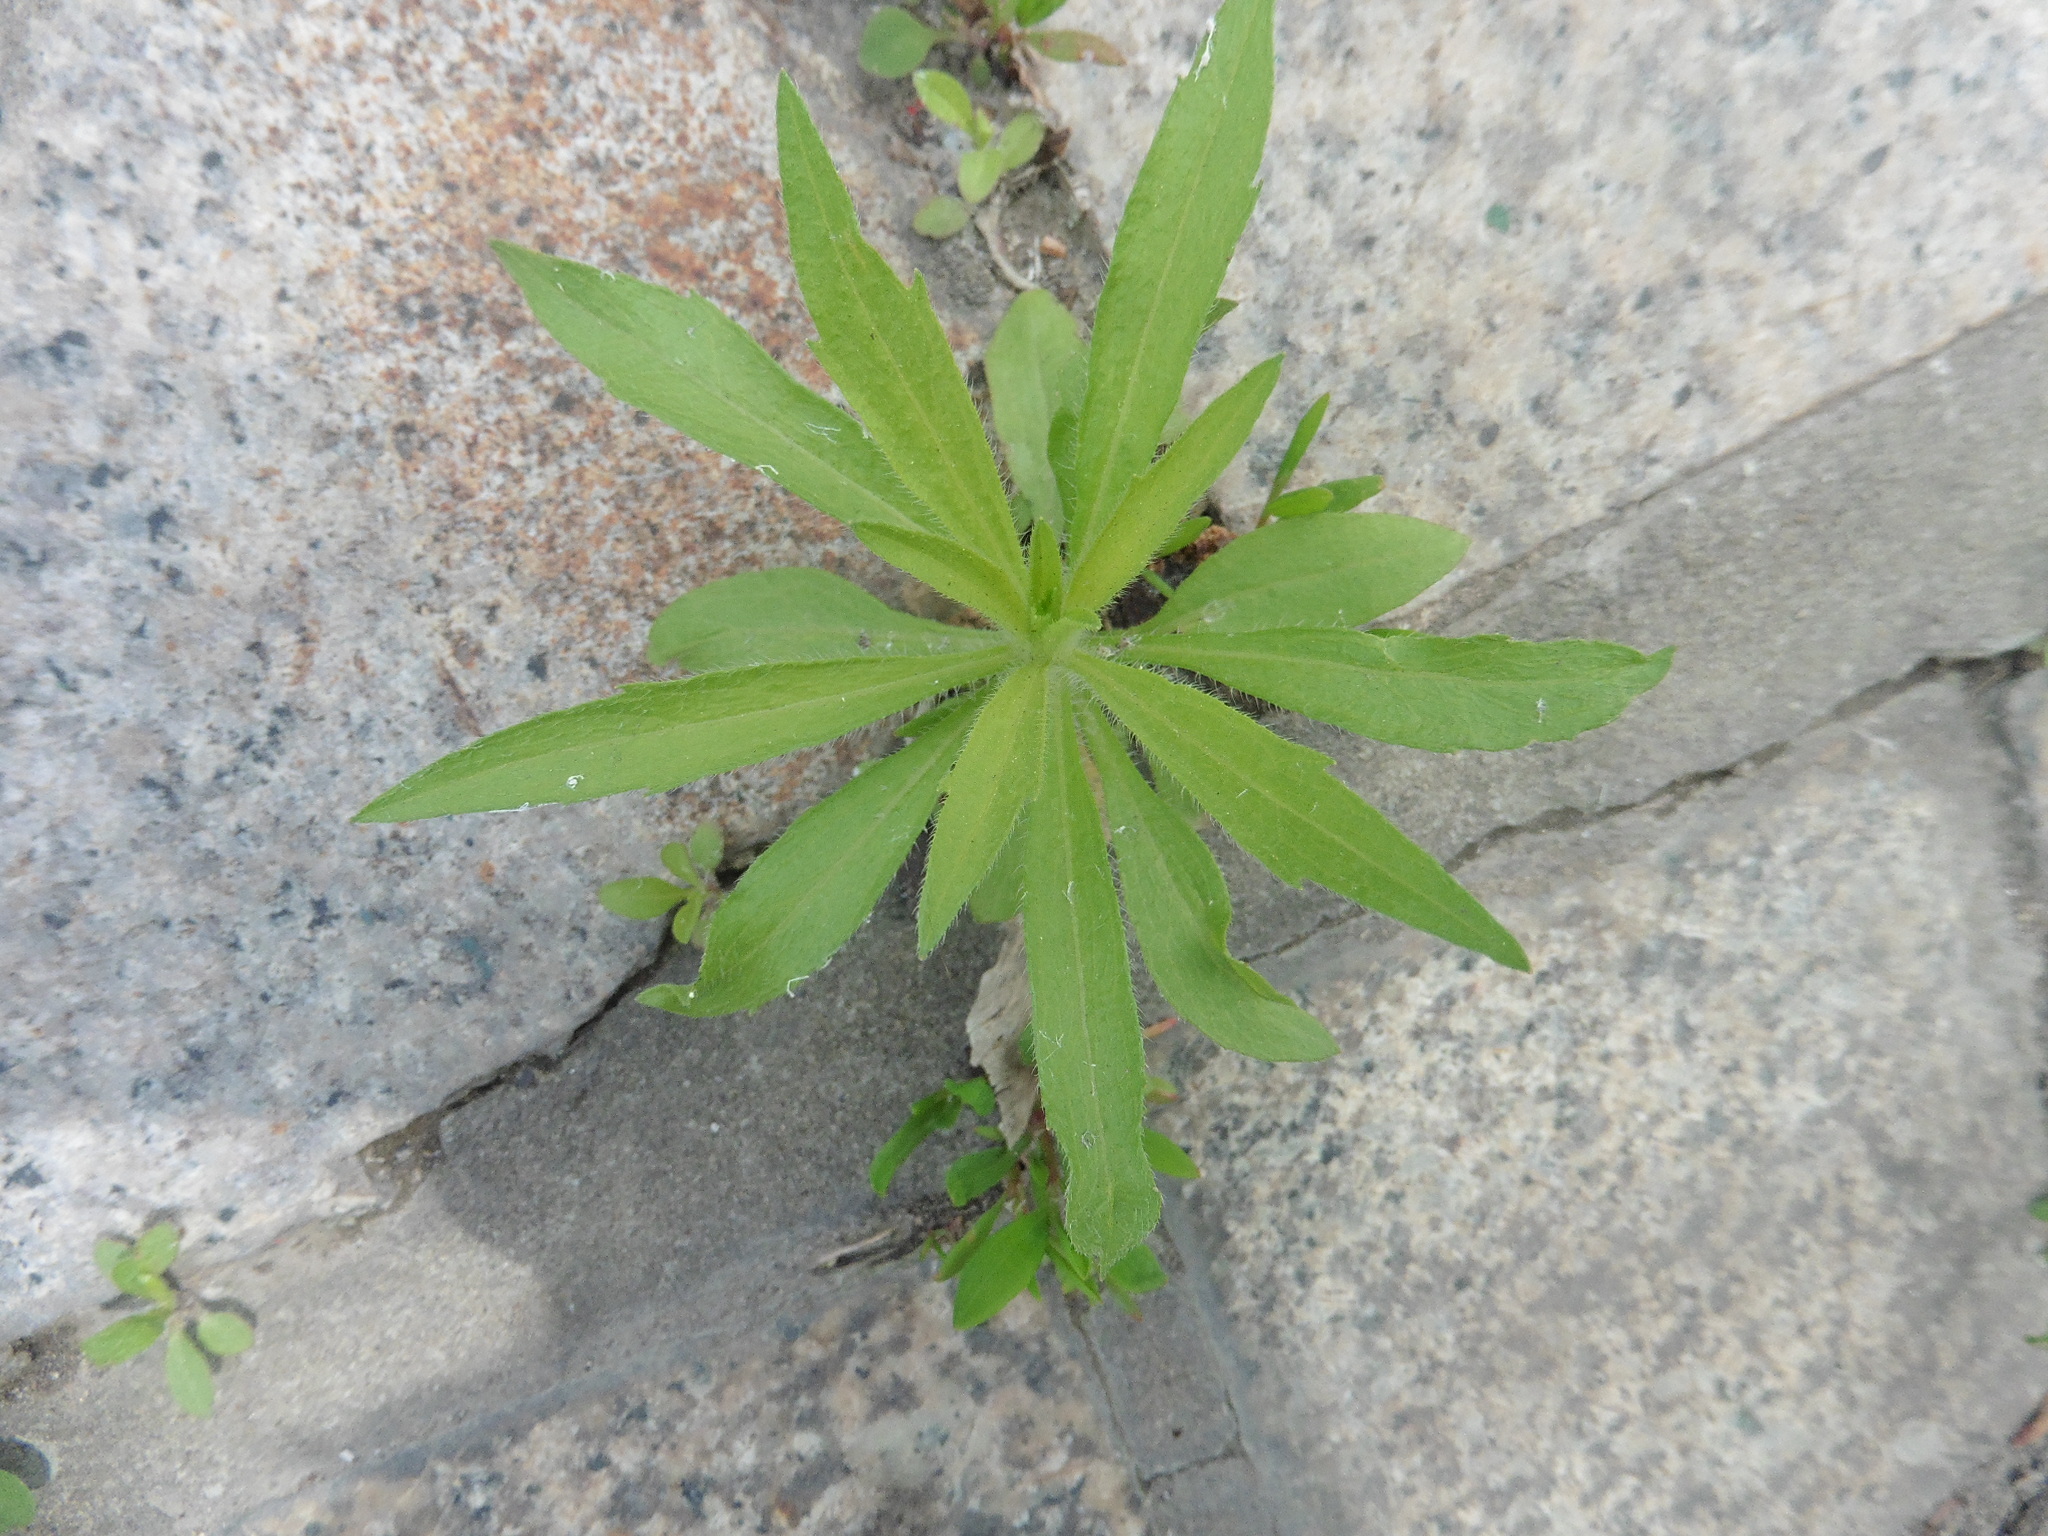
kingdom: Plantae
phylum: Tracheophyta
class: Magnoliopsida
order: Asterales
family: Asteraceae
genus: Erigeron
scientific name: Erigeron canadensis
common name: Canadian fleabane
